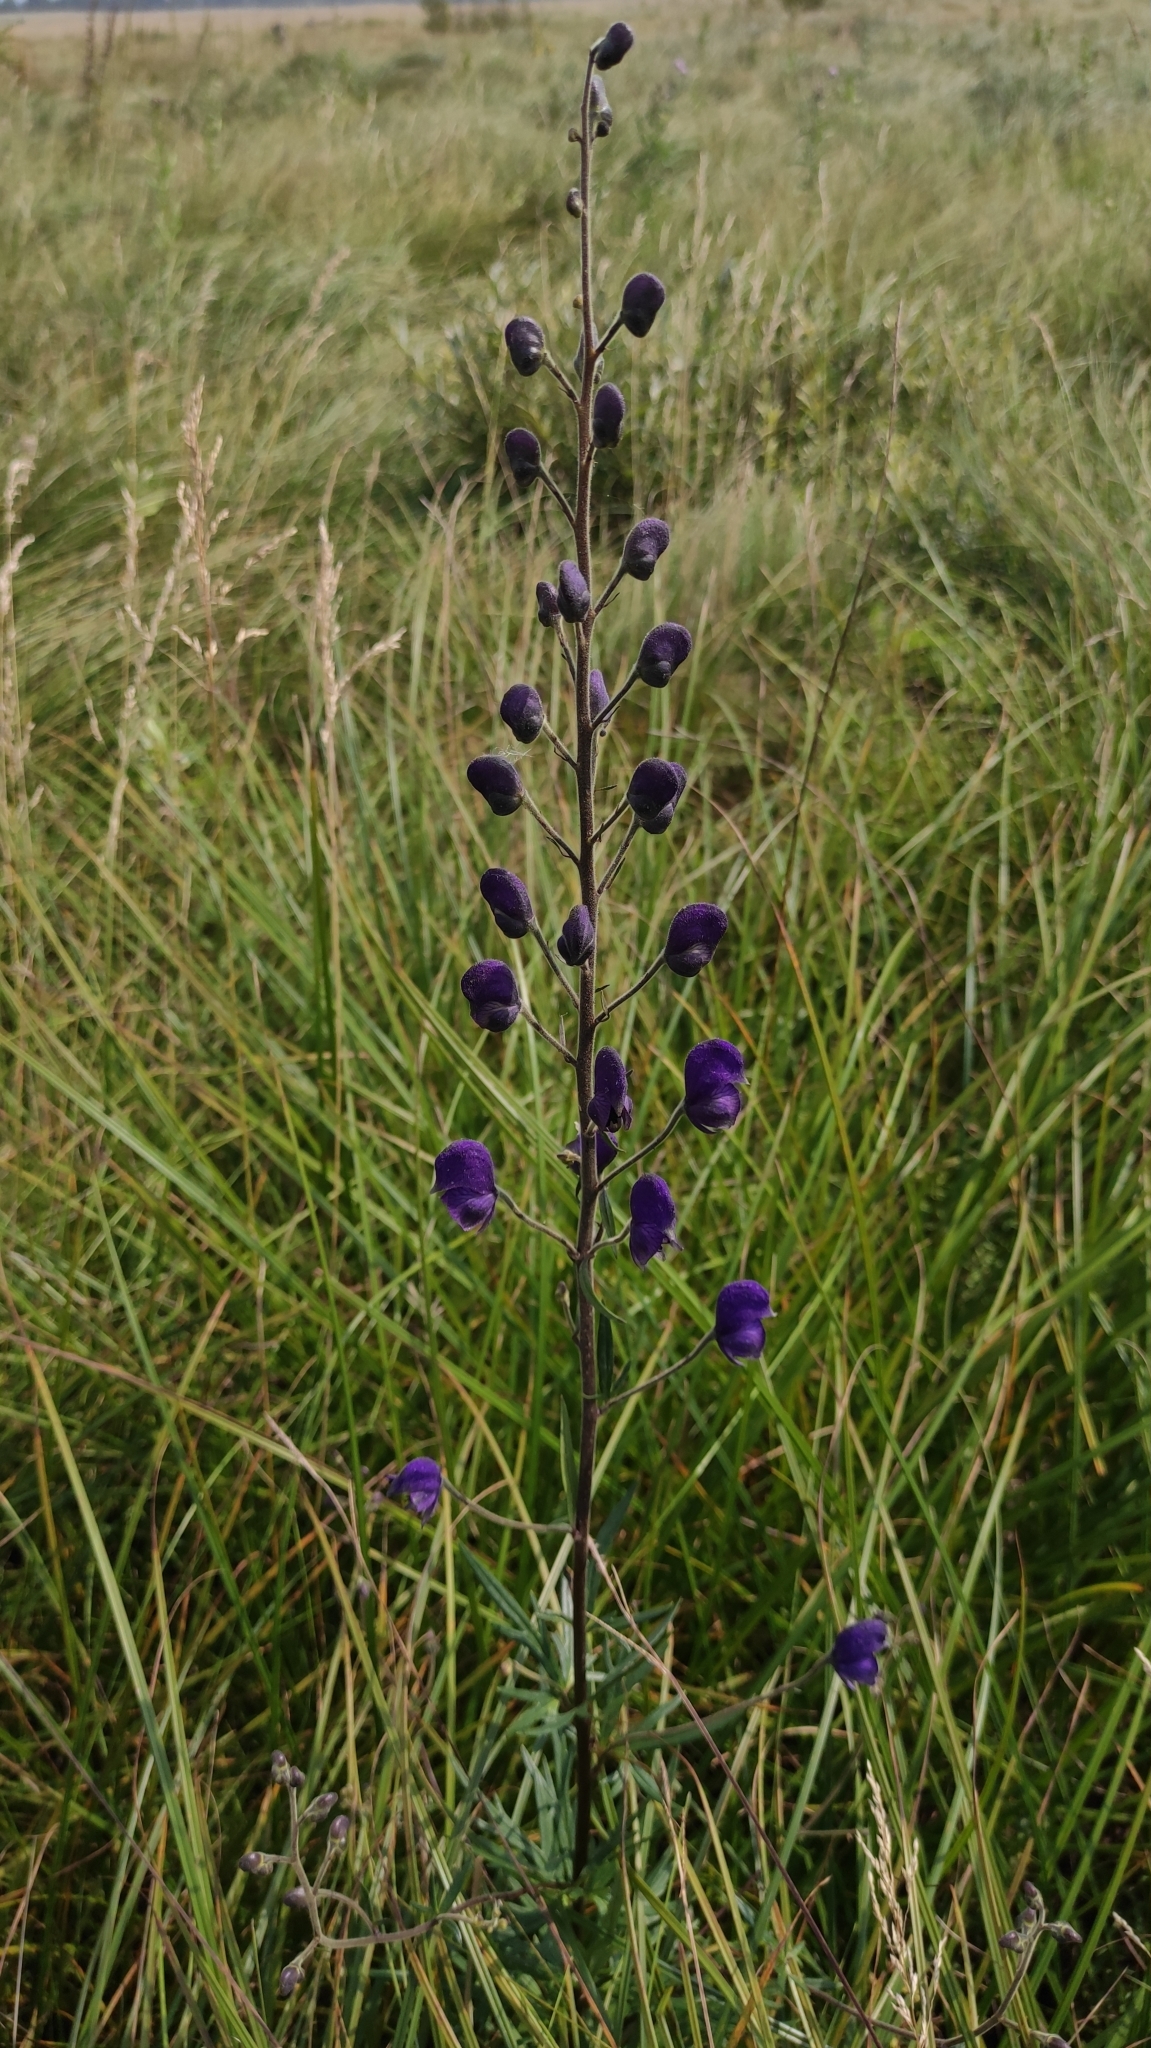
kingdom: Plantae
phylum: Tracheophyta
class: Magnoliopsida
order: Ranunculales
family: Ranunculaceae
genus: Aconitum
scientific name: Aconitum baicalense
